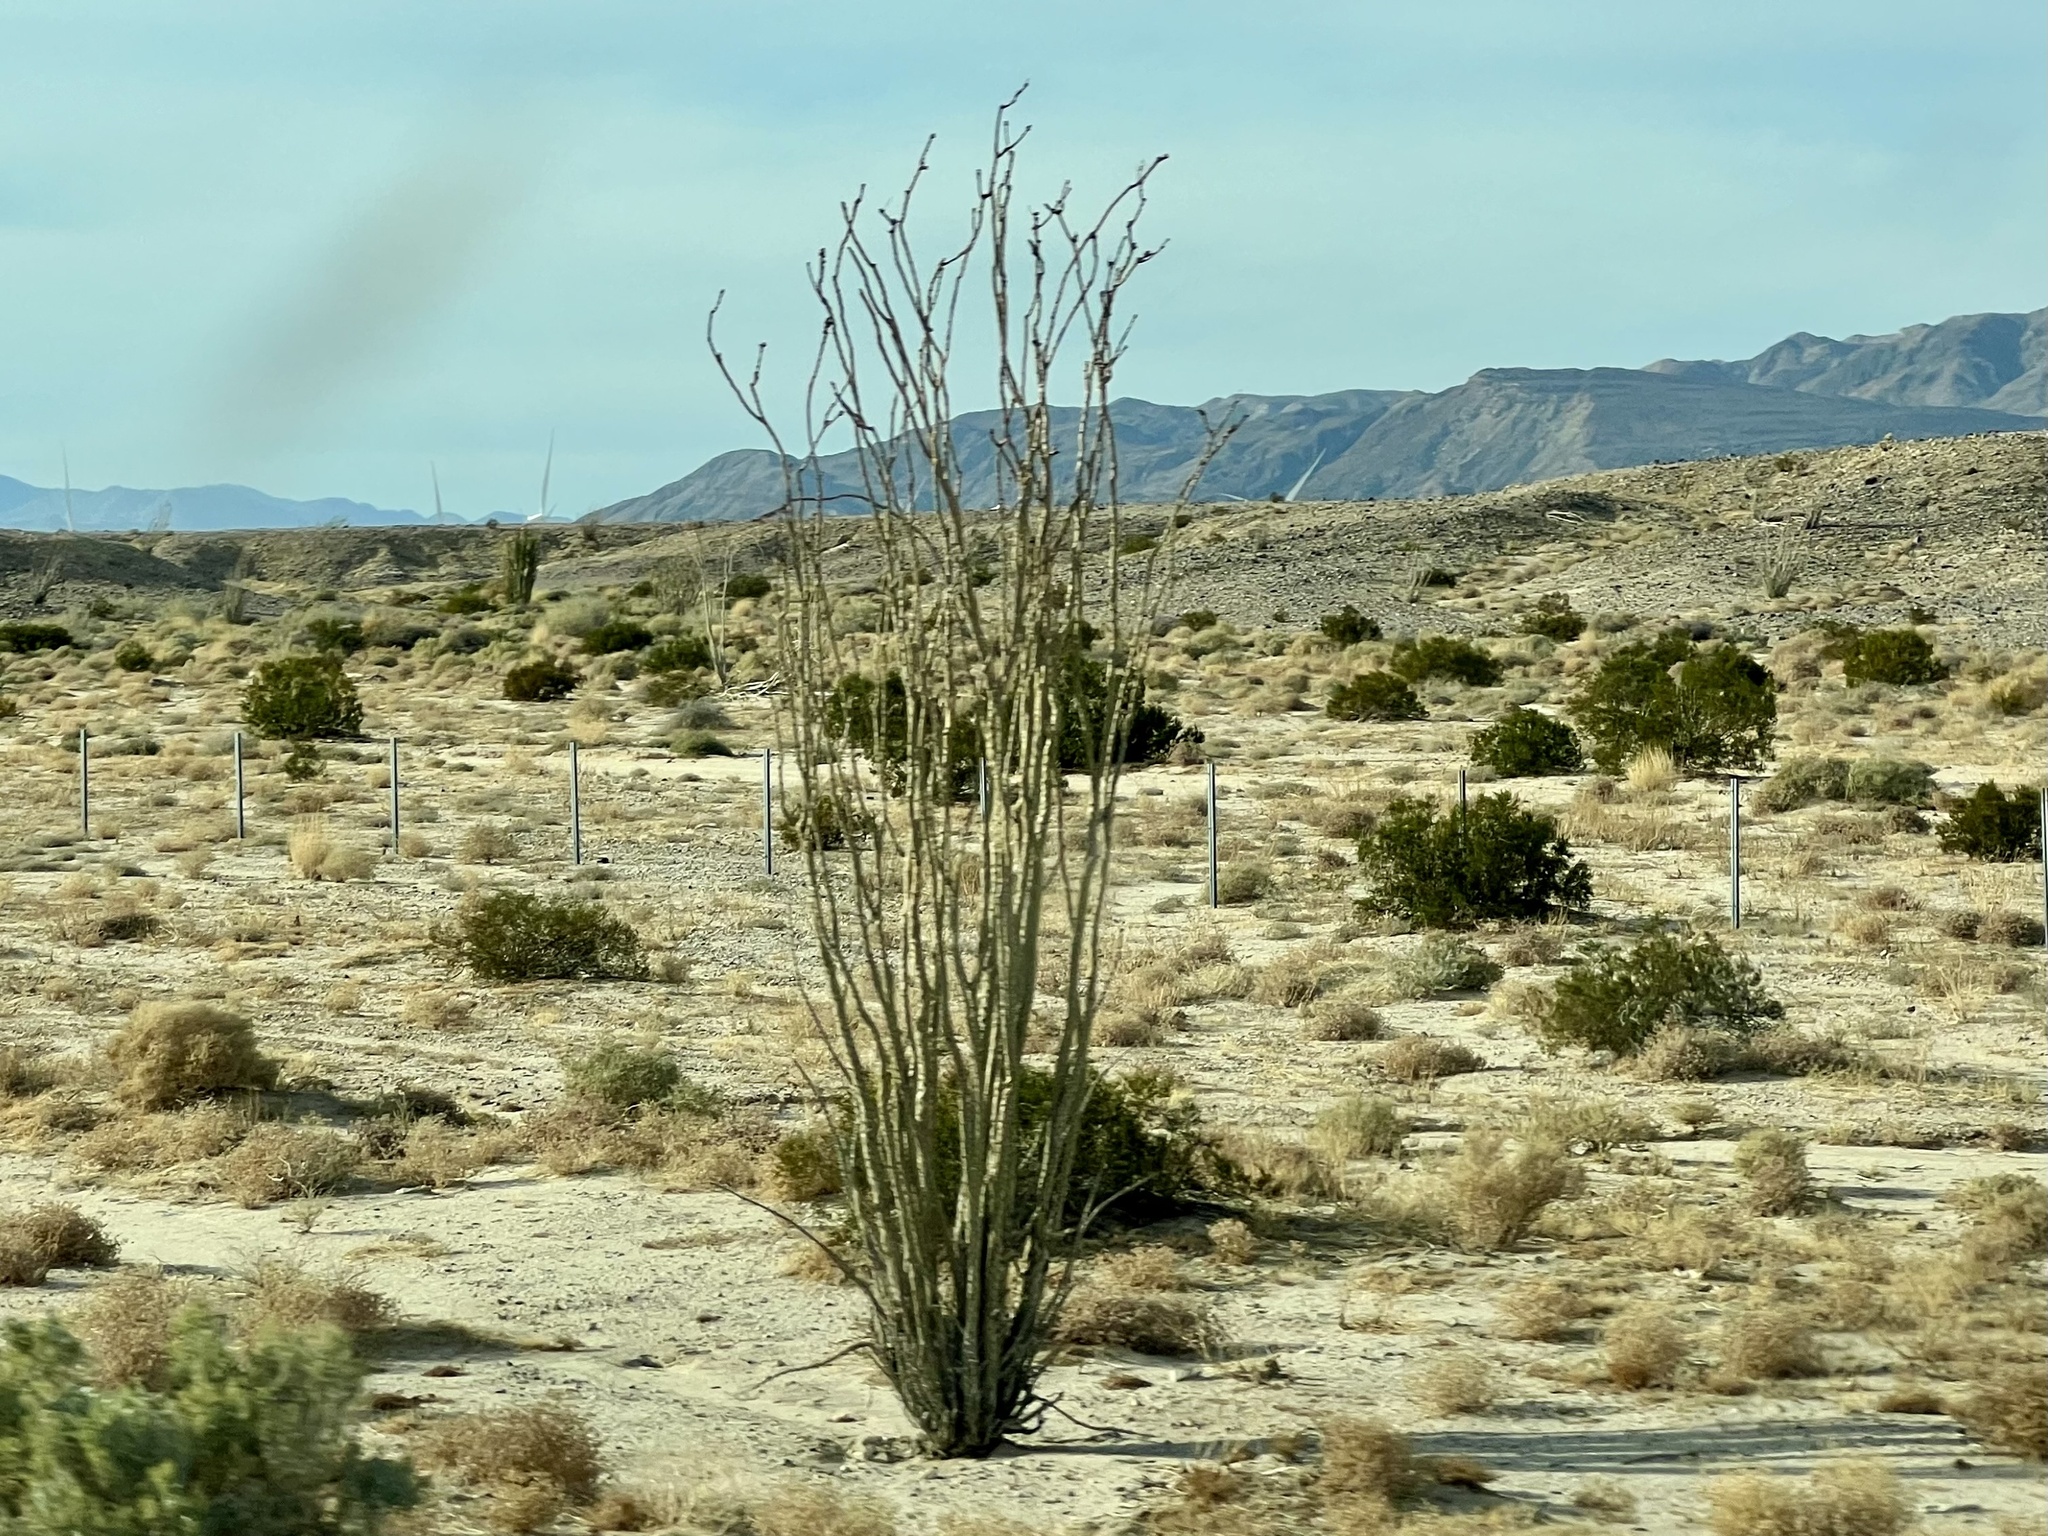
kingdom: Plantae
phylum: Tracheophyta
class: Magnoliopsida
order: Ericales
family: Fouquieriaceae
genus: Fouquieria
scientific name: Fouquieria splendens
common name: Vine-cactus
